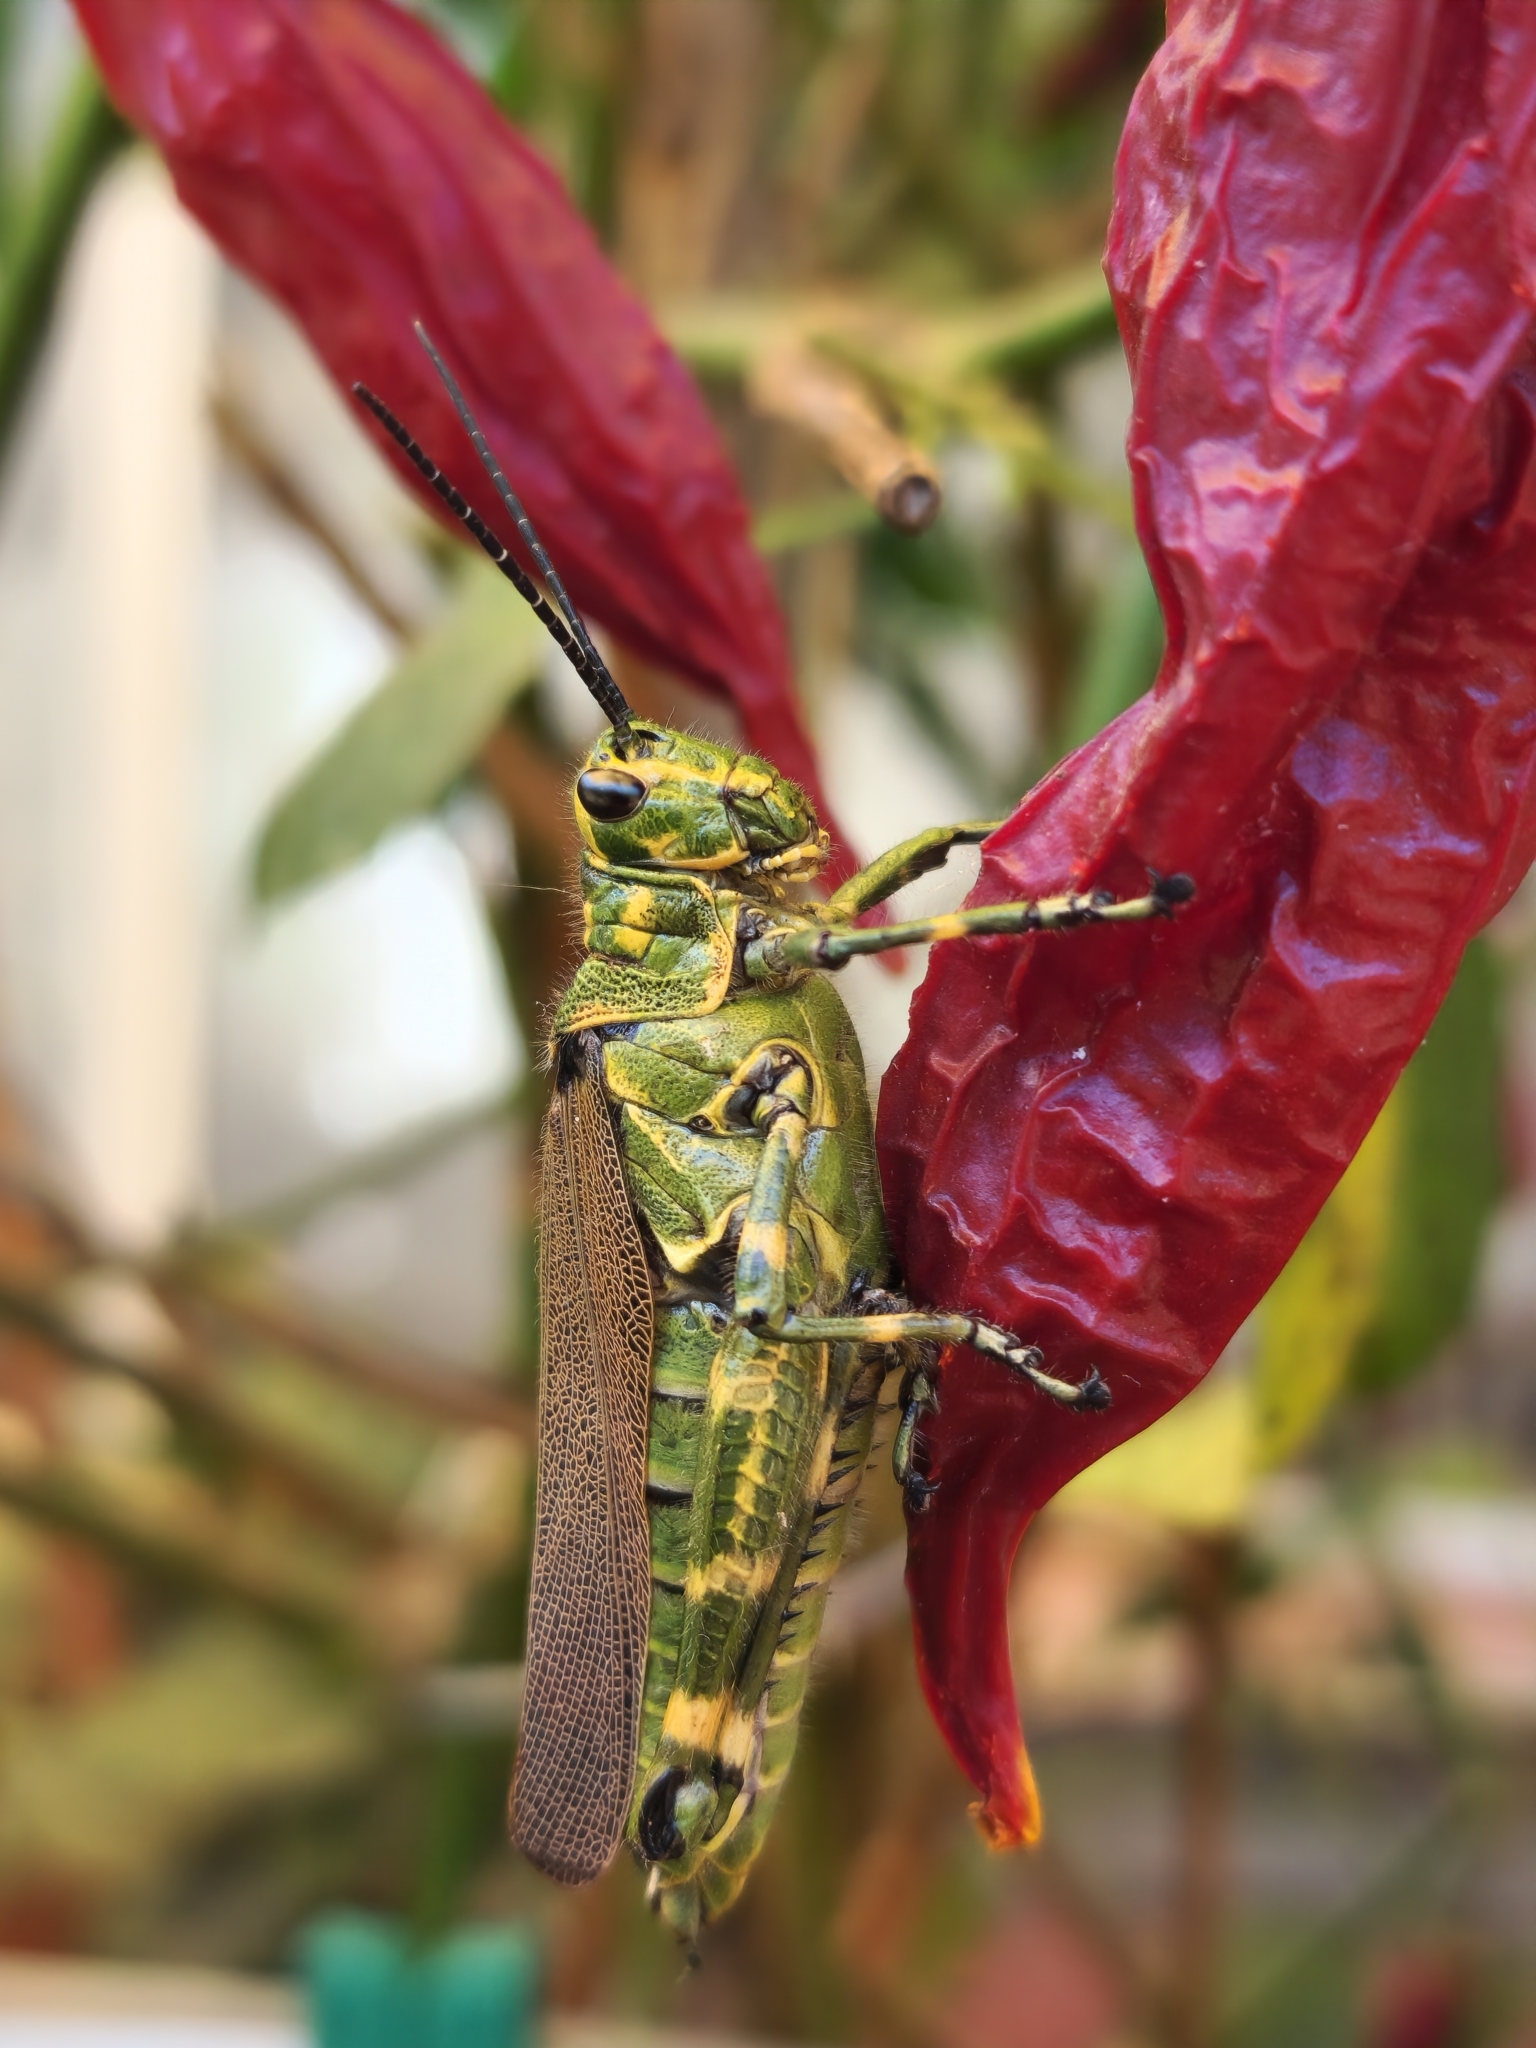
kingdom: Animalia
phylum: Arthropoda
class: Insecta
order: Orthoptera
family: Romaleidae
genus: Chromacris
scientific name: Chromacris speciosa
